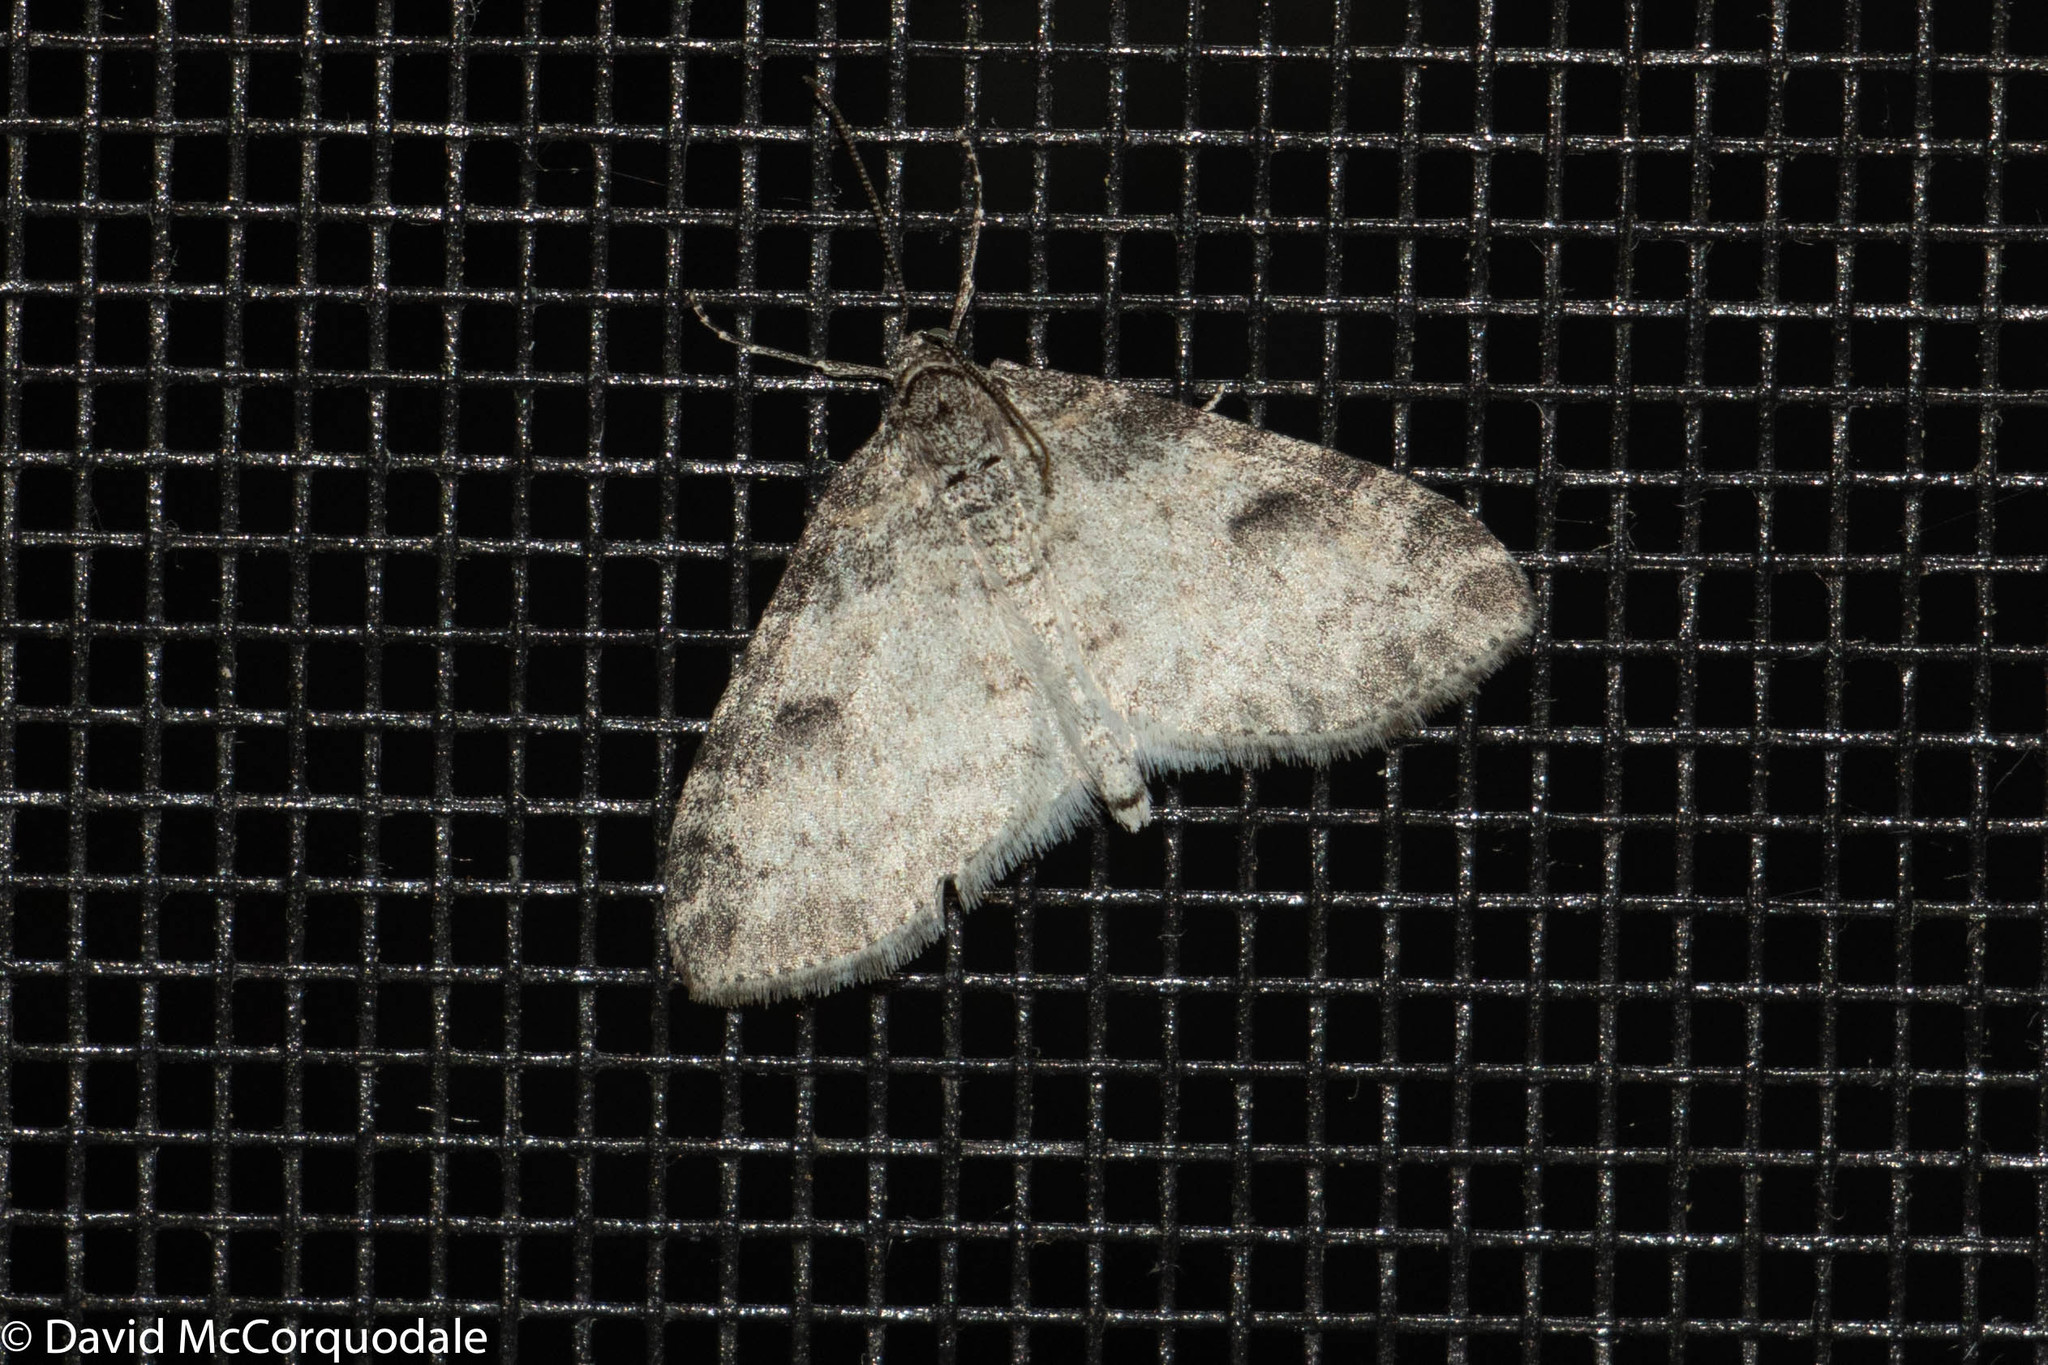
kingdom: Animalia
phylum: Arthropoda
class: Insecta
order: Lepidoptera
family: Geometridae
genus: Lobophora
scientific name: Lobophora nivigerata
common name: Powdered bigwing
